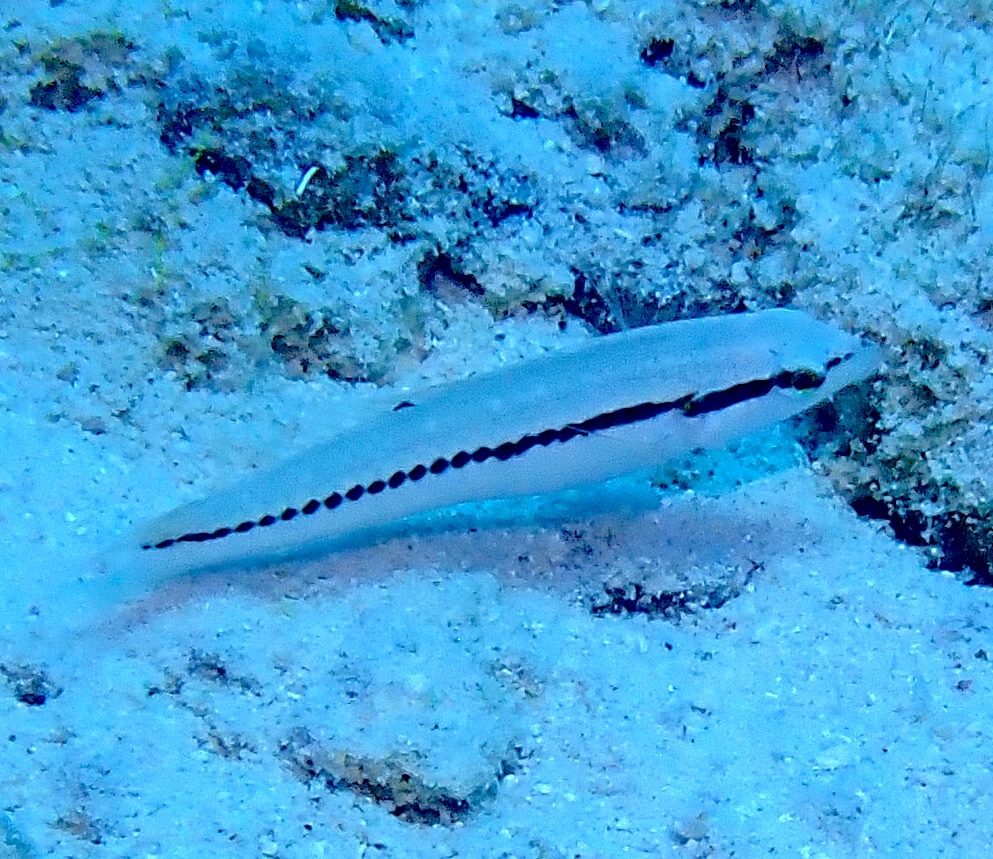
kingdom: Animalia
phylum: Chordata
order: Perciformes
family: Labridae
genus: Halichoeres
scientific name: Halichoeres bivittatus
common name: Slippery dick
